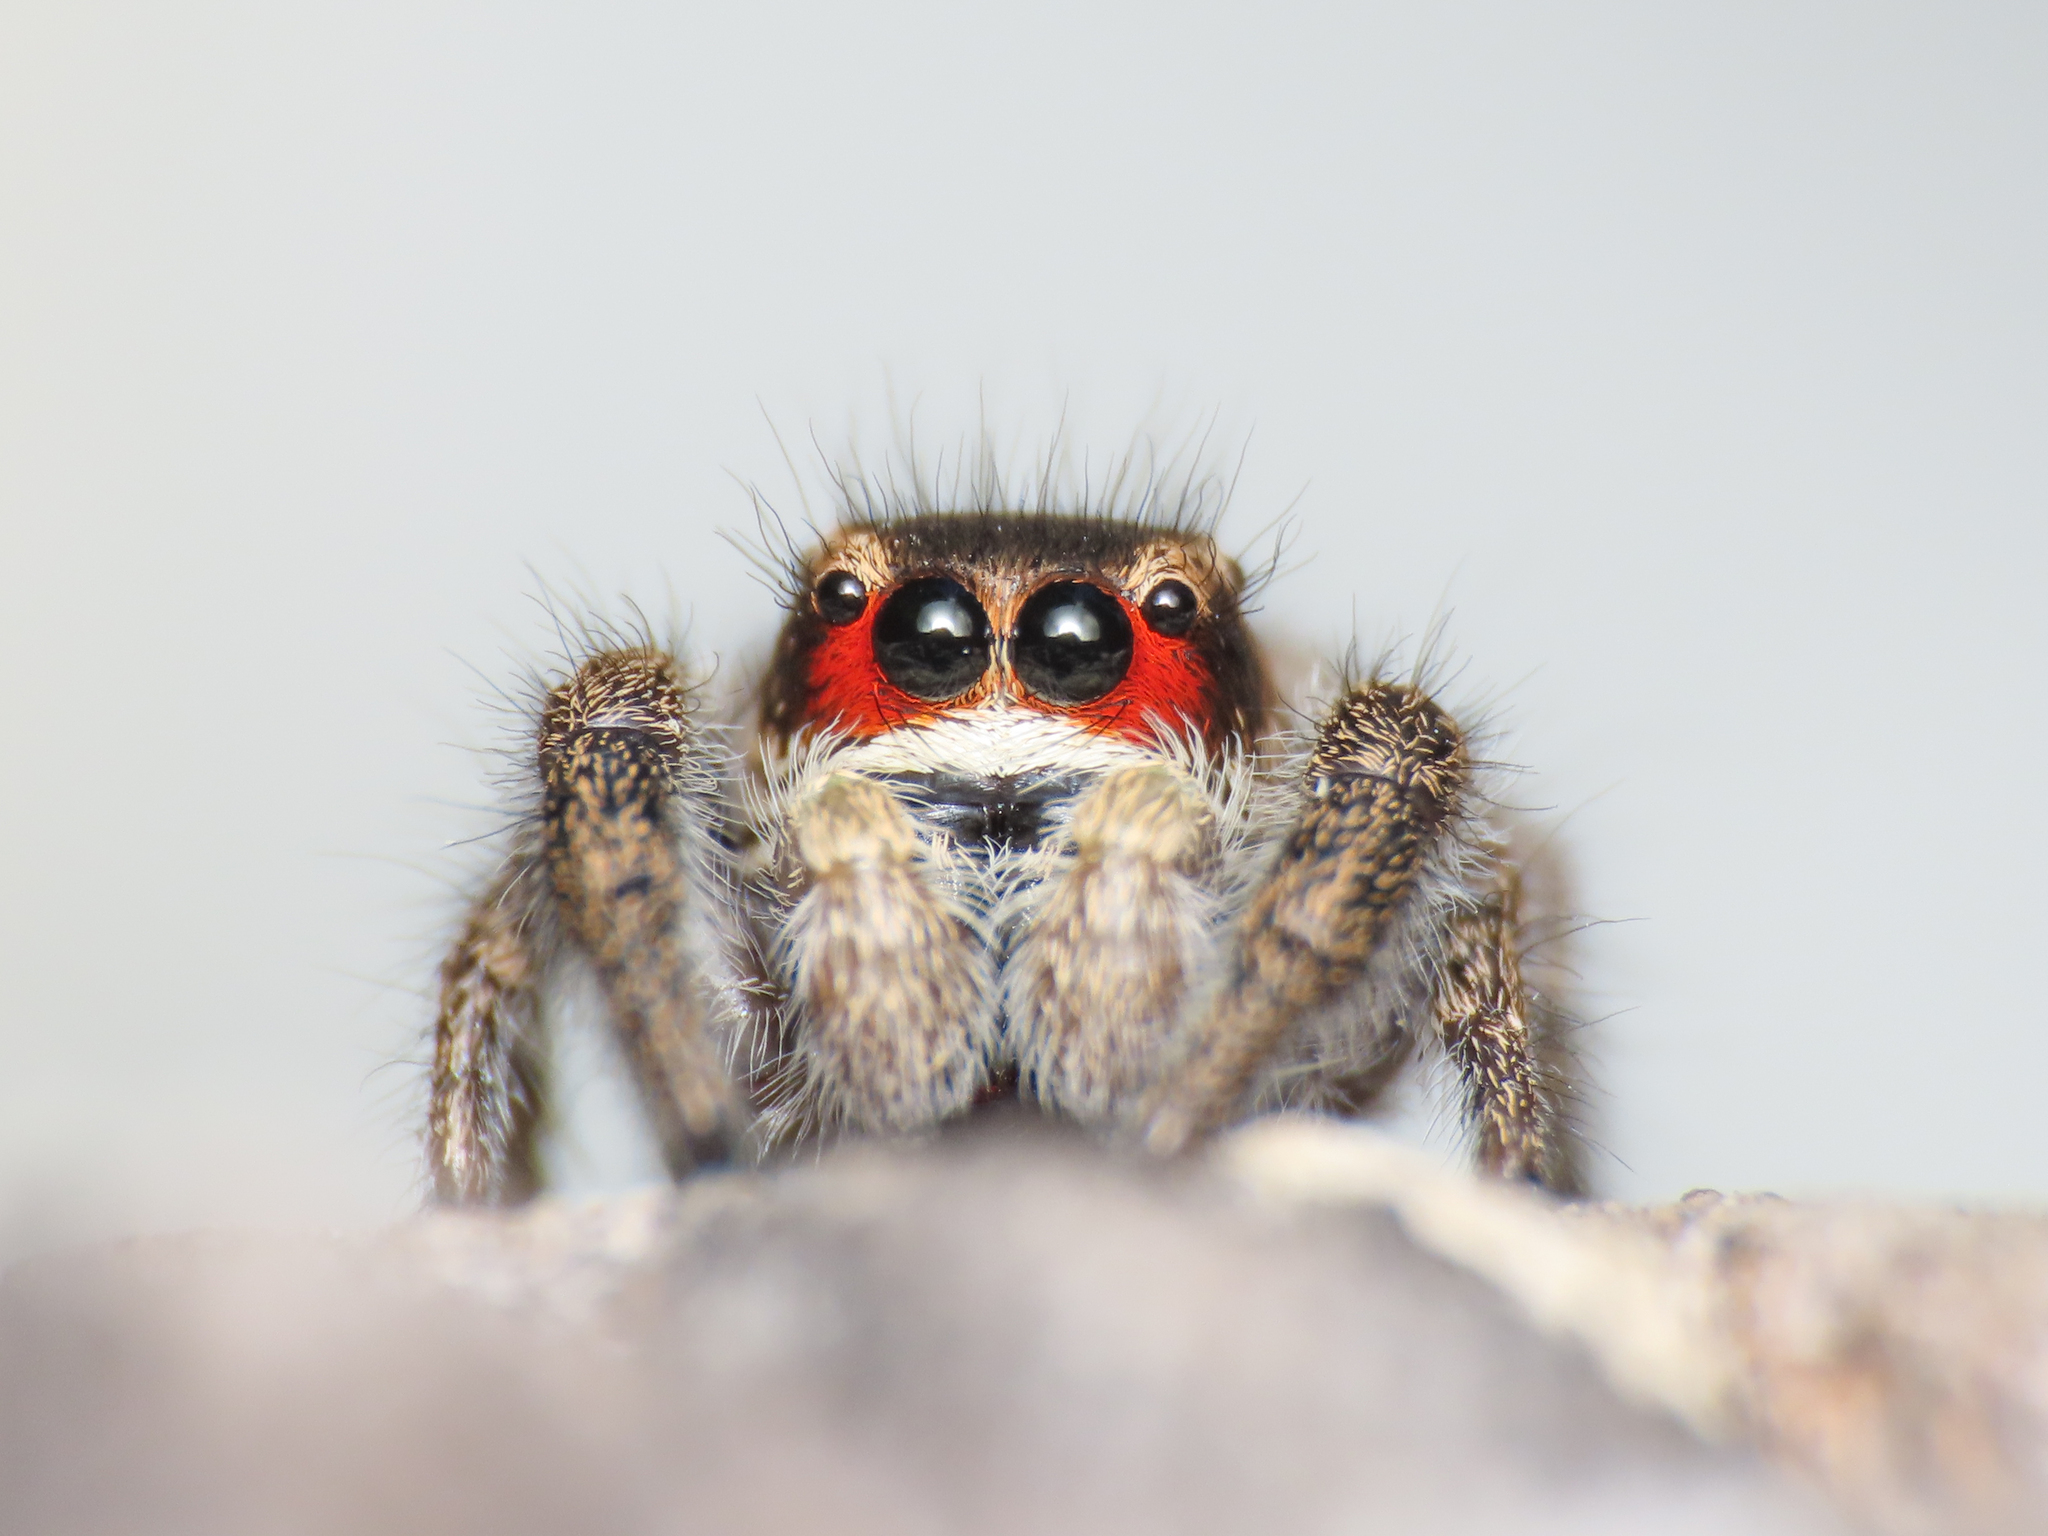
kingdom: Animalia
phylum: Arthropoda
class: Arachnida
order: Araneae
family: Salticidae
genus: Pellenes
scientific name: Pellenes seriatus
